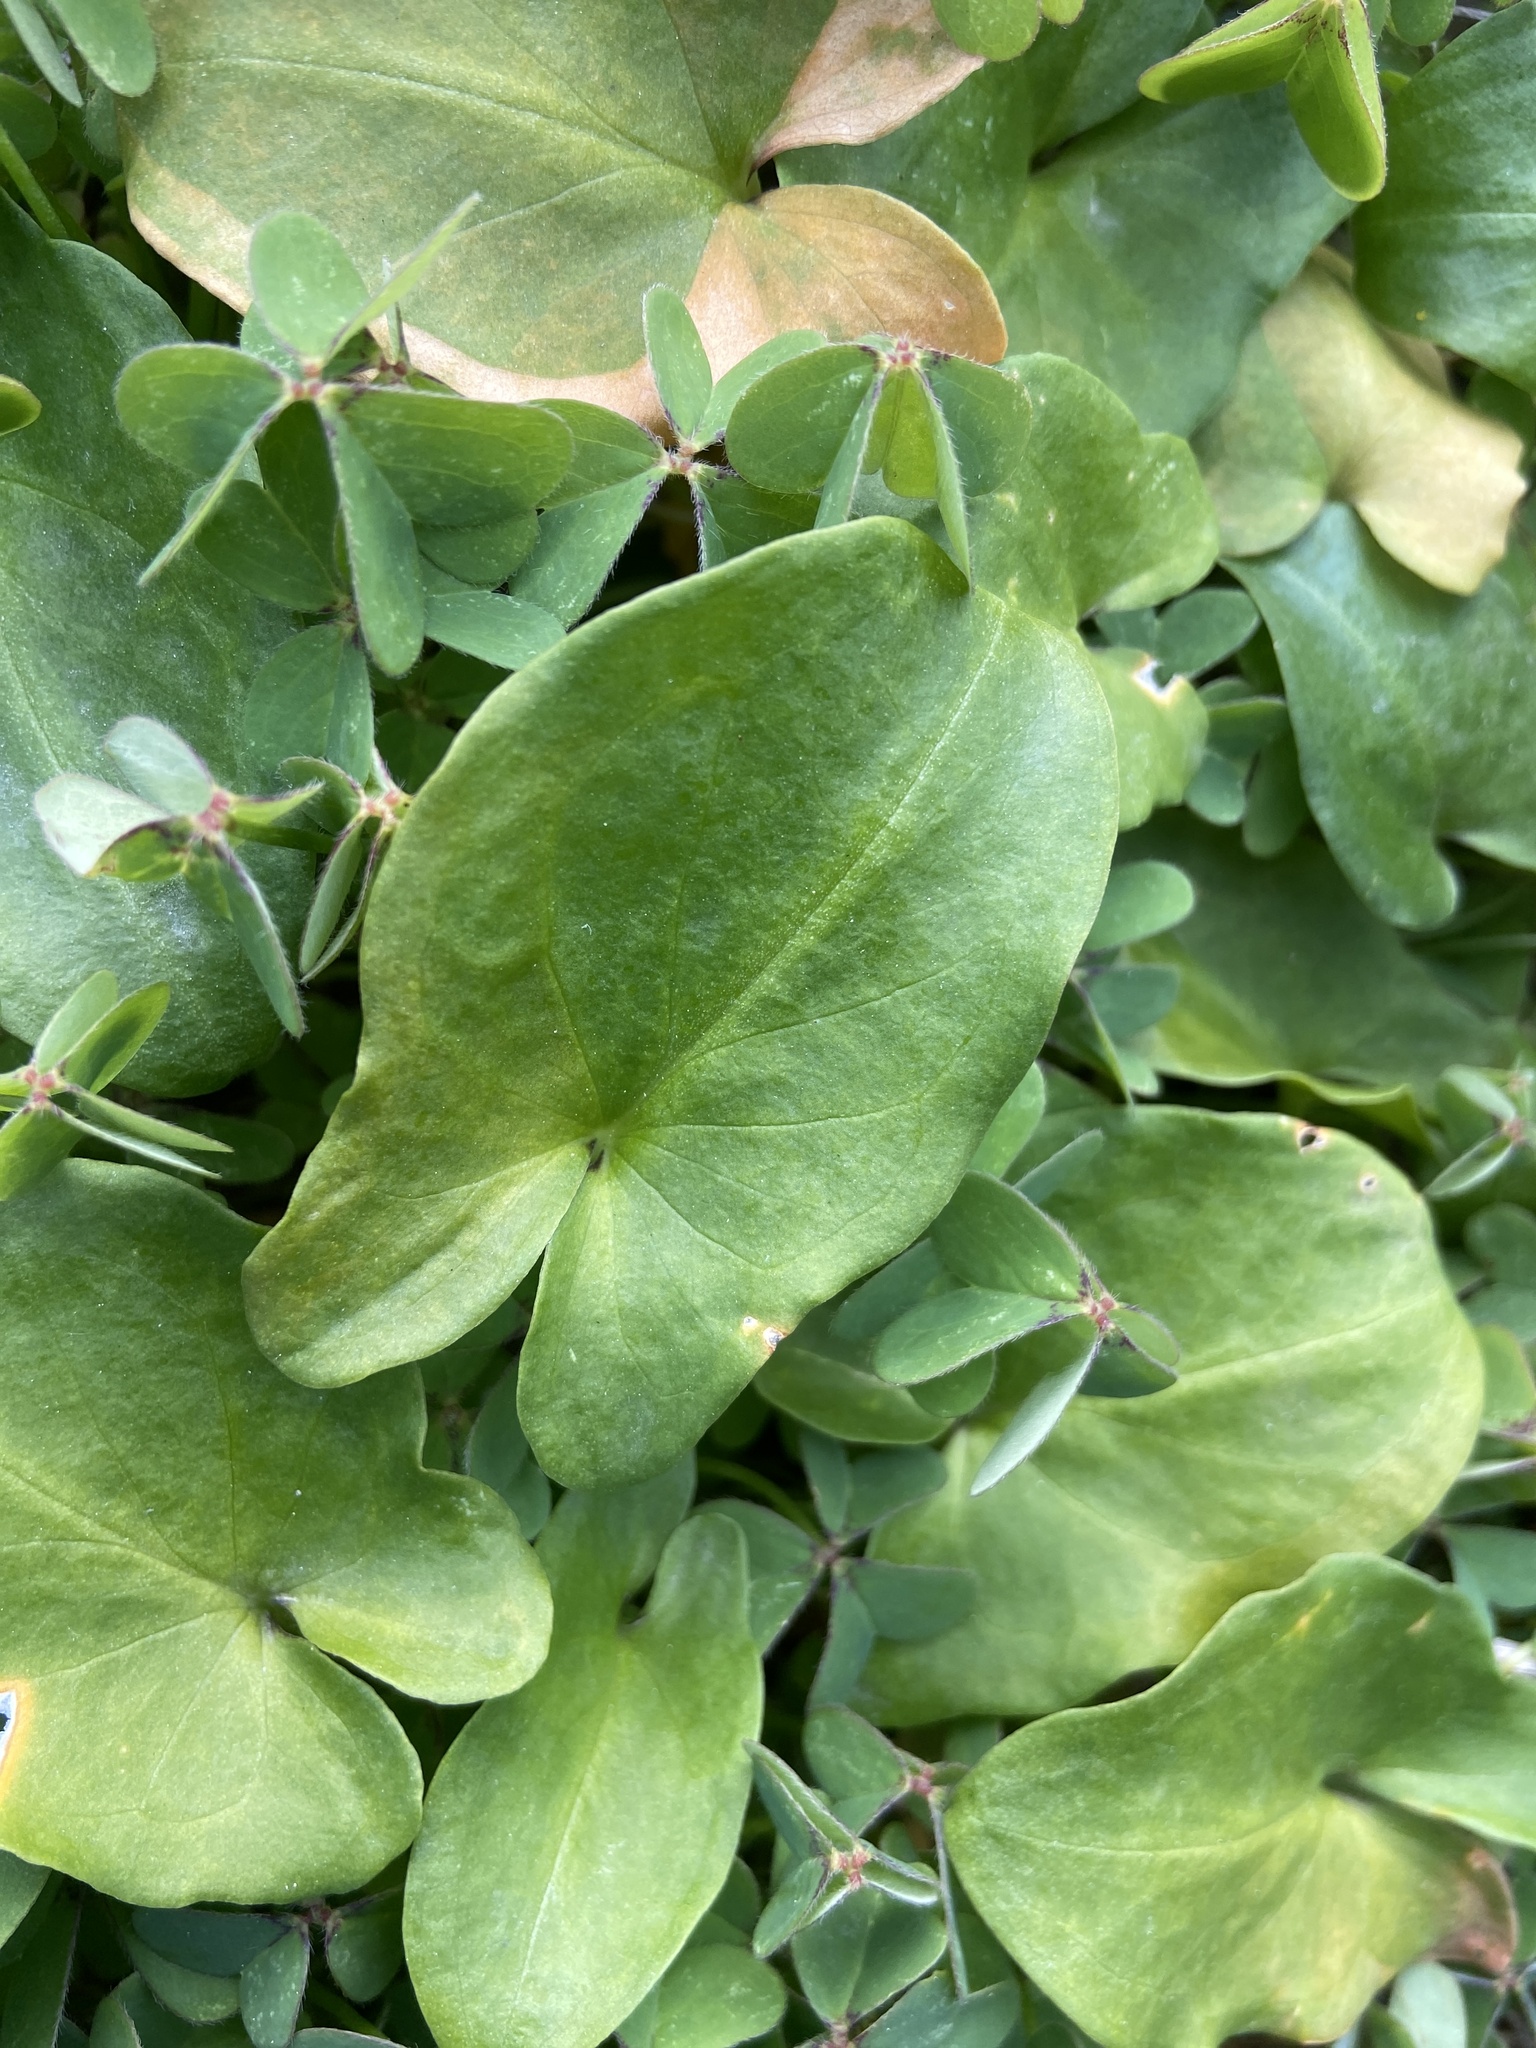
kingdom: Plantae
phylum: Tracheophyta
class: Liliopsida
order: Alismatales
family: Araceae
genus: Arisarum
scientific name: Arisarum vulgare
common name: Common arisarum
